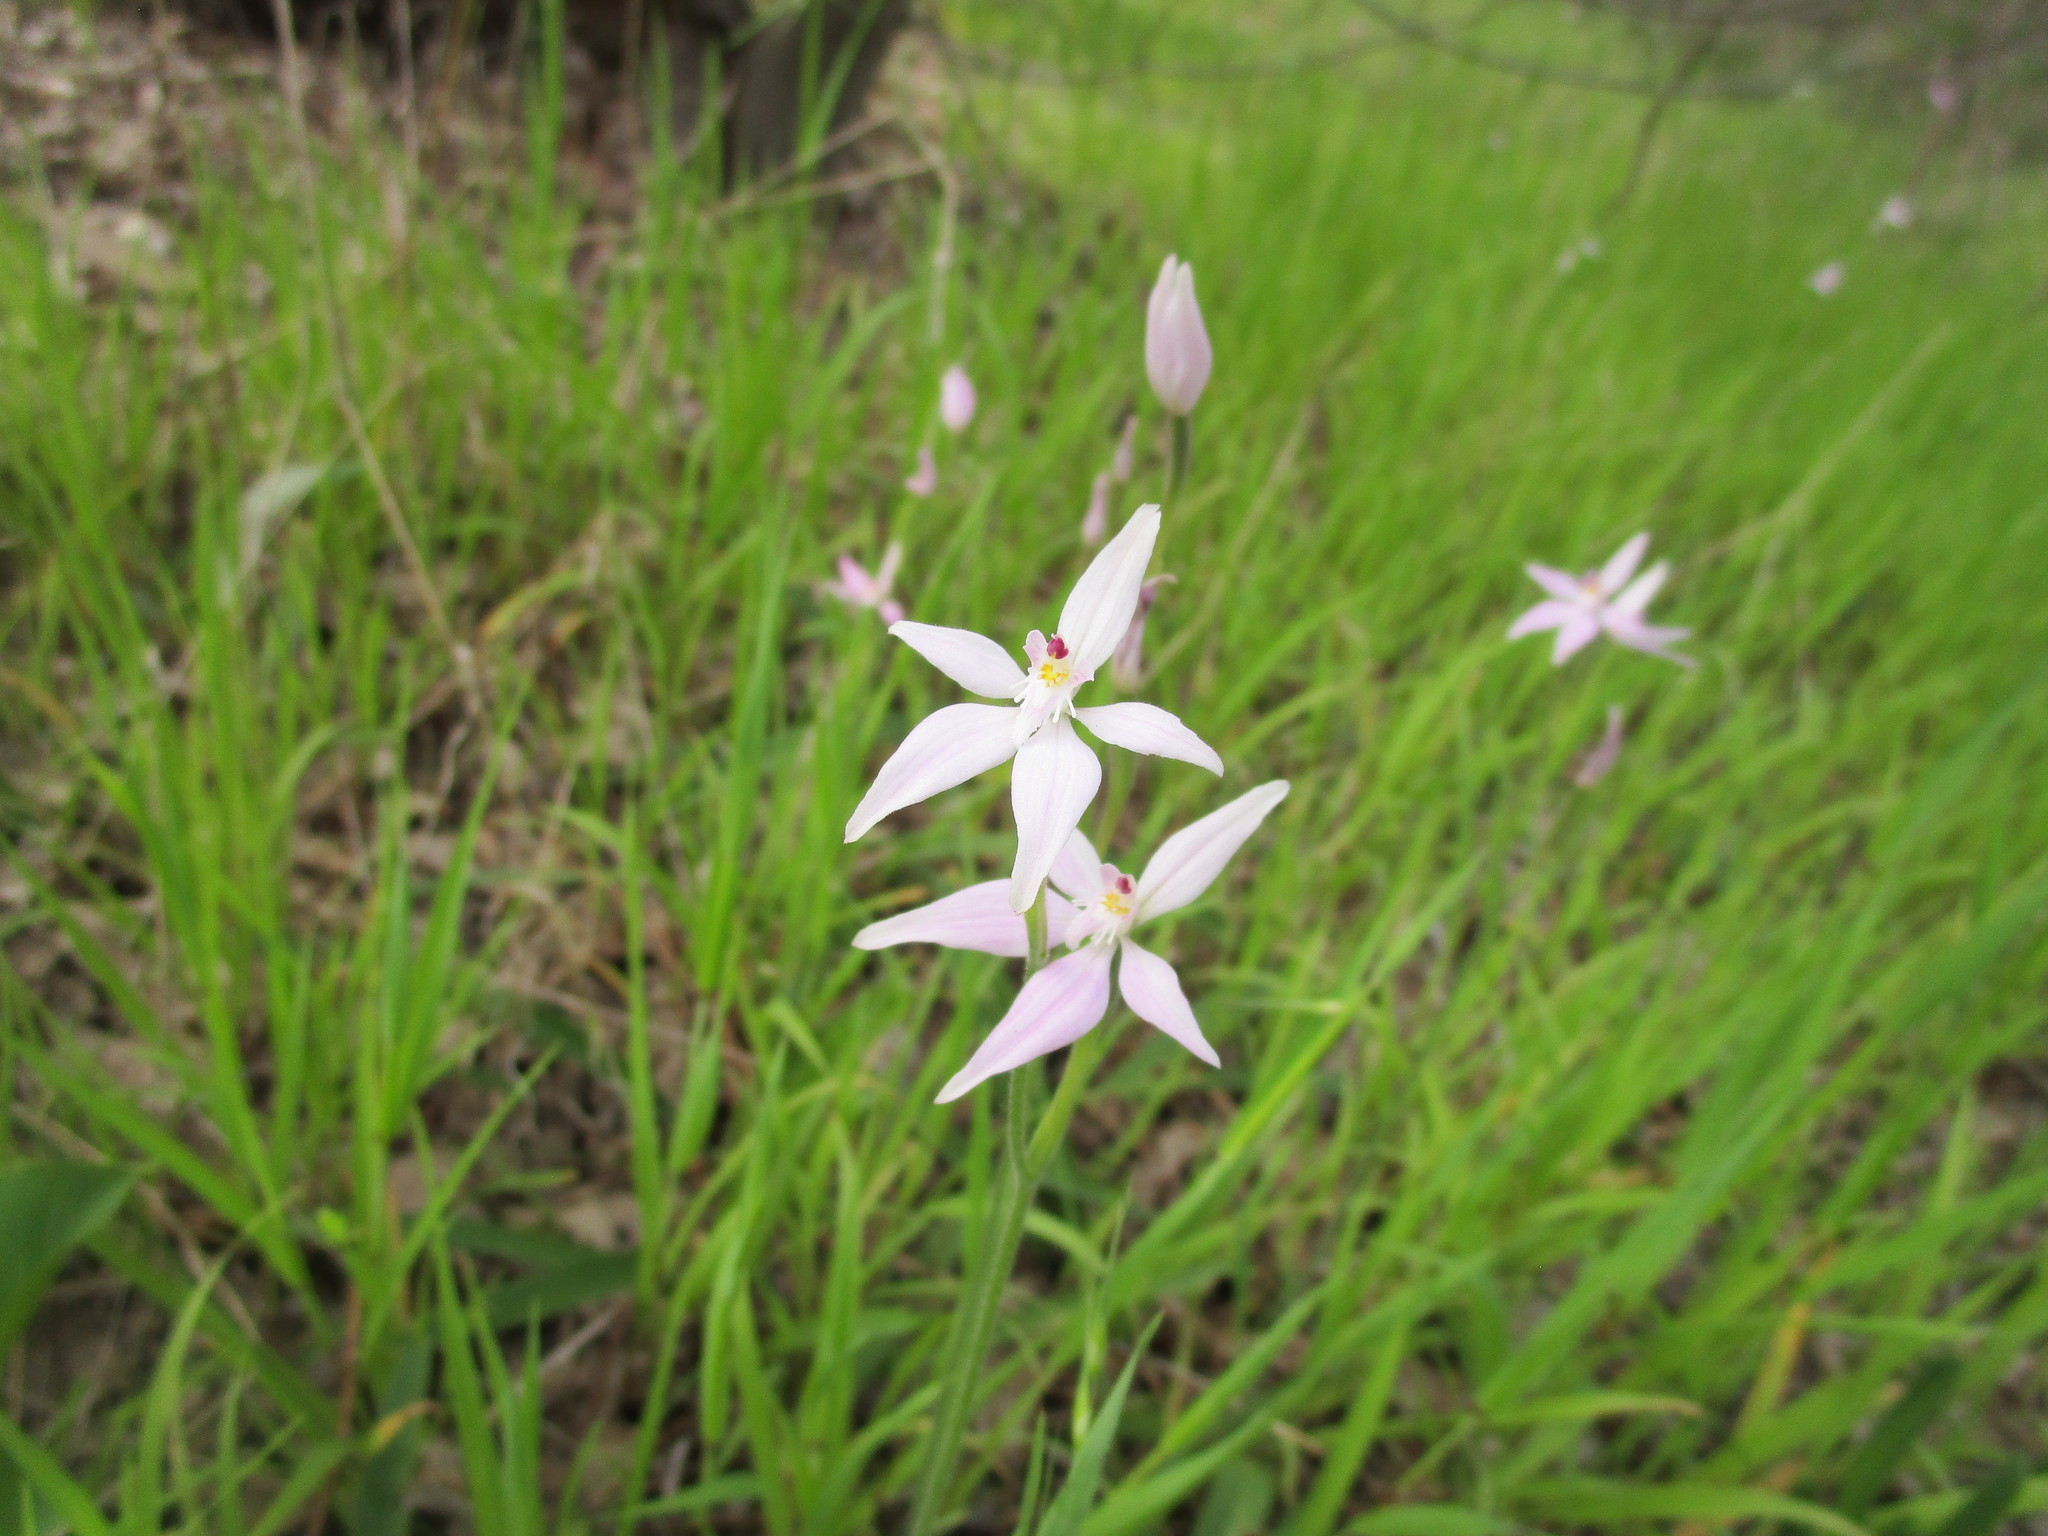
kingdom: Plantae
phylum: Tracheophyta
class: Liliopsida
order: Asparagales
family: Orchidaceae
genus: Caladenia
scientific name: Caladenia latifolia
